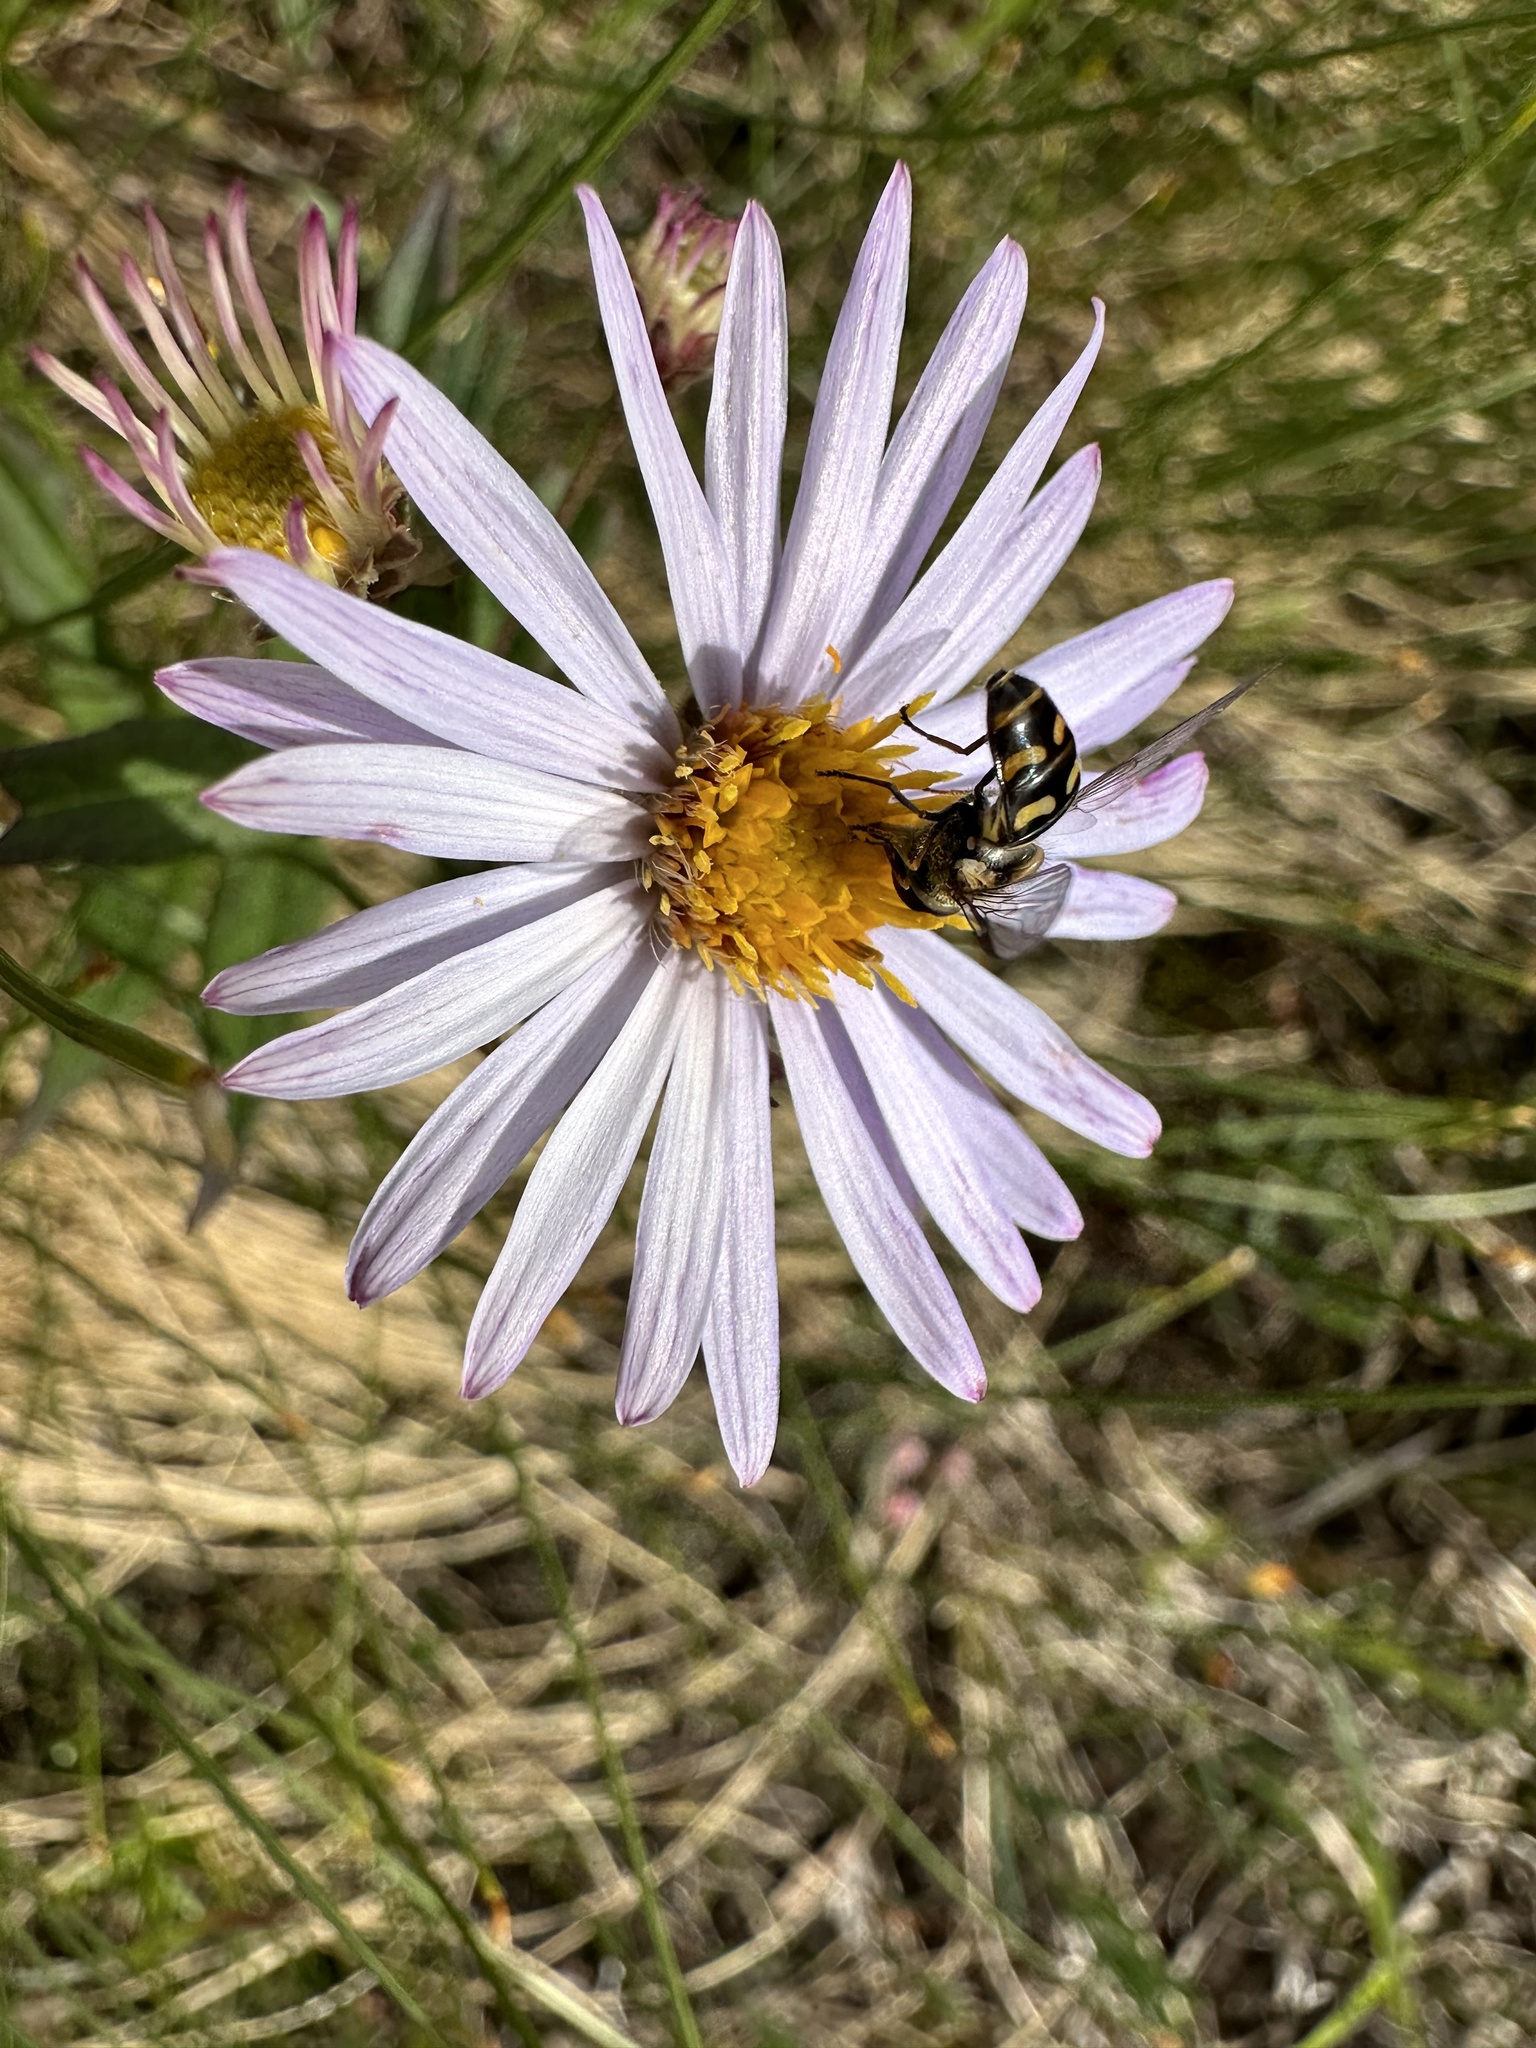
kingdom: Animalia
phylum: Arthropoda
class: Insecta
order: Diptera
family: Syrphidae
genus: Lapposyrphus
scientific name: Lapposyrphus lapponicus
